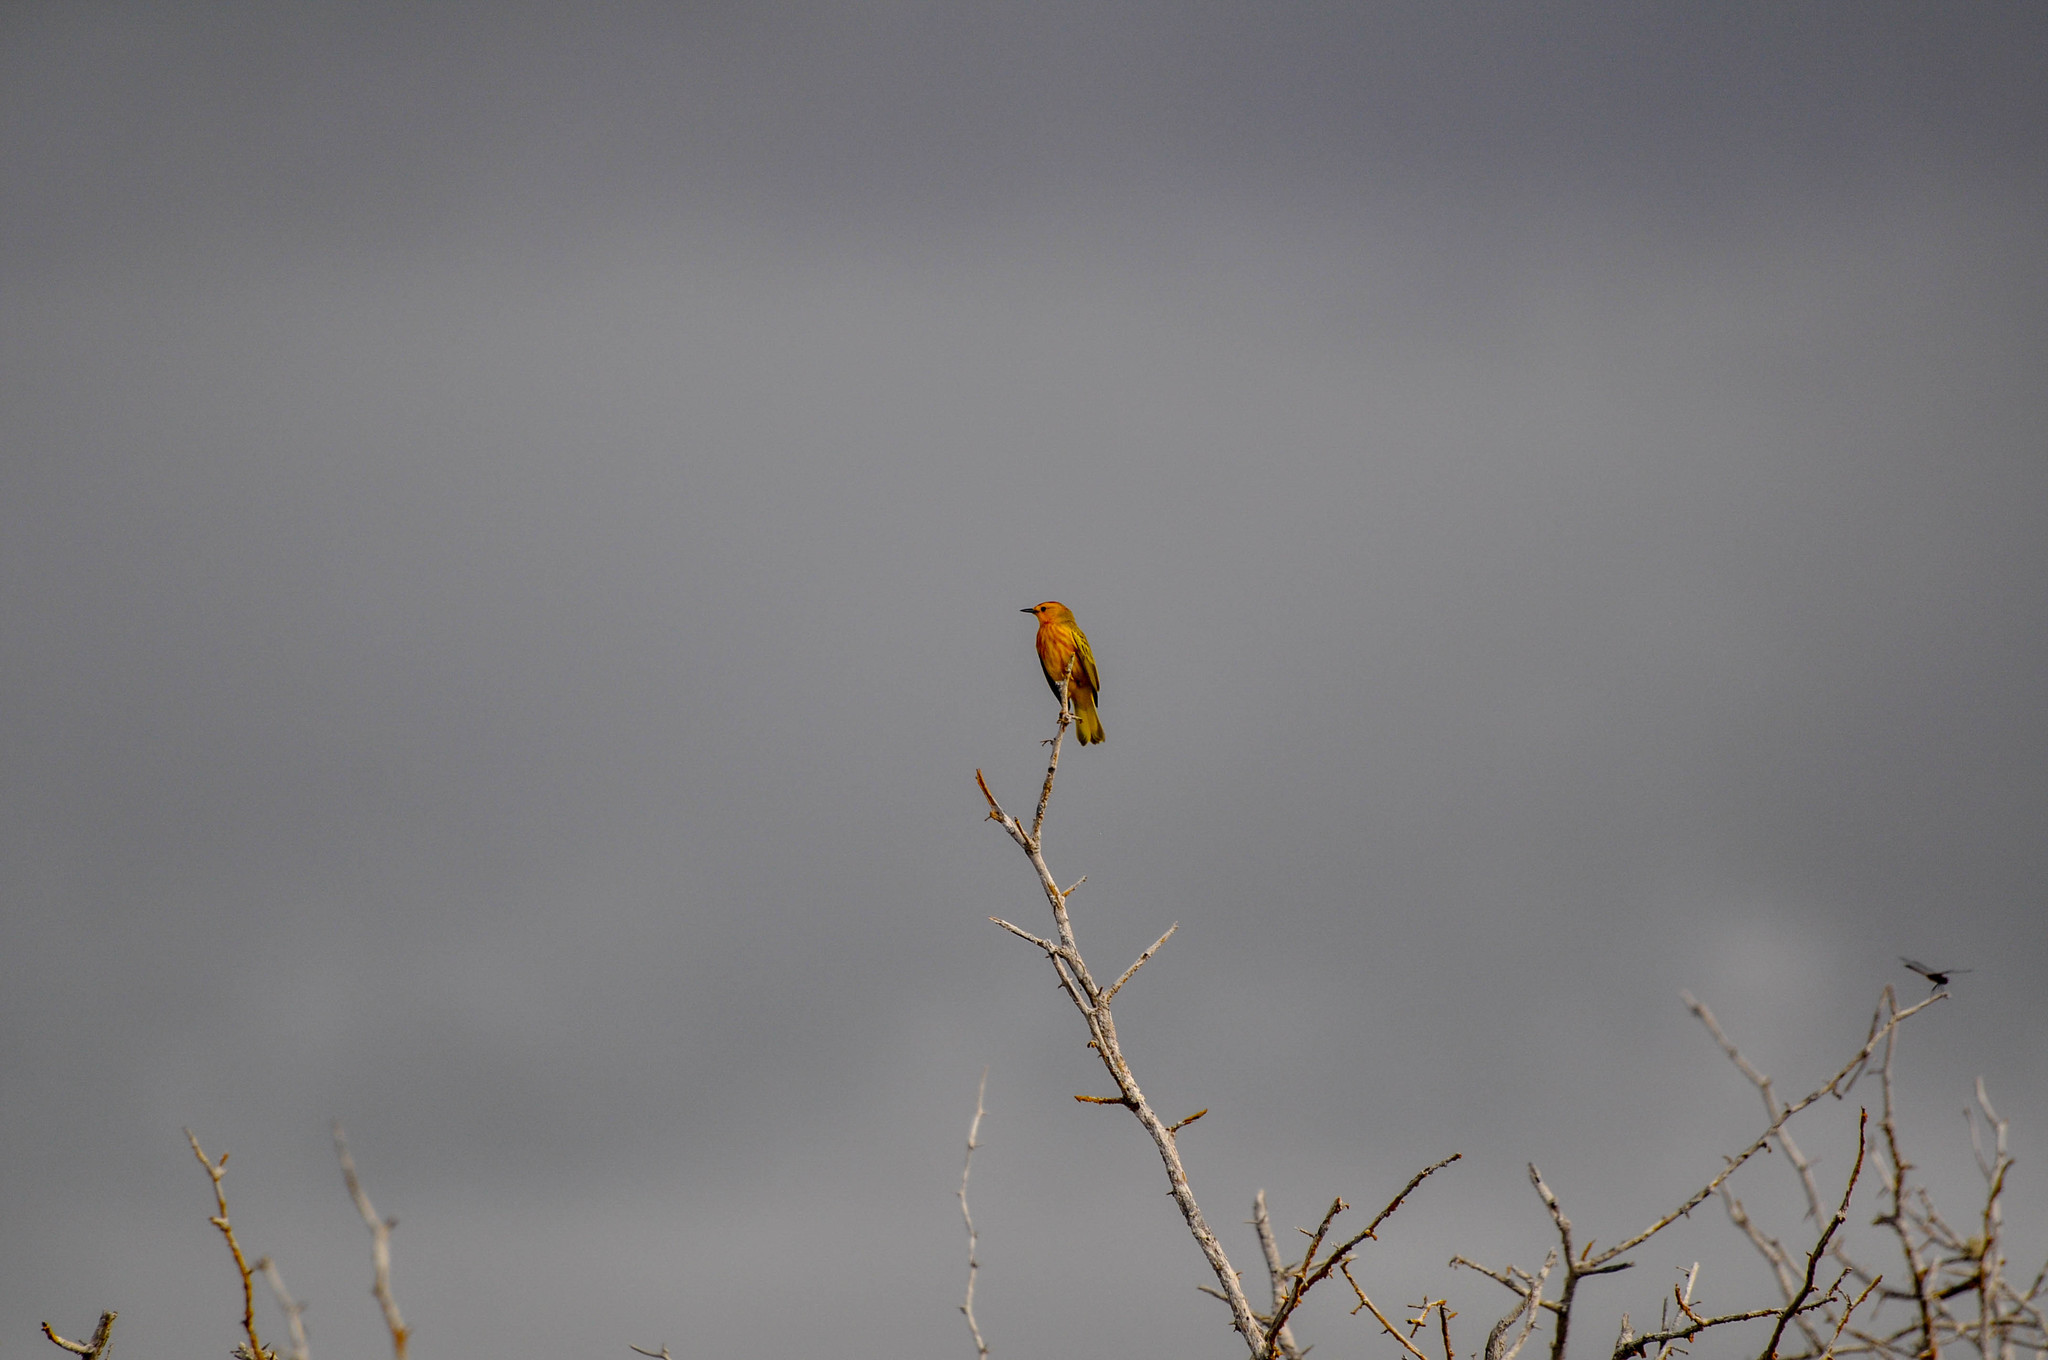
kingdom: Animalia
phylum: Chordata
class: Aves
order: Passeriformes
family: Parulidae
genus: Setophaga
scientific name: Setophaga petechia
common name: Yellow warbler
